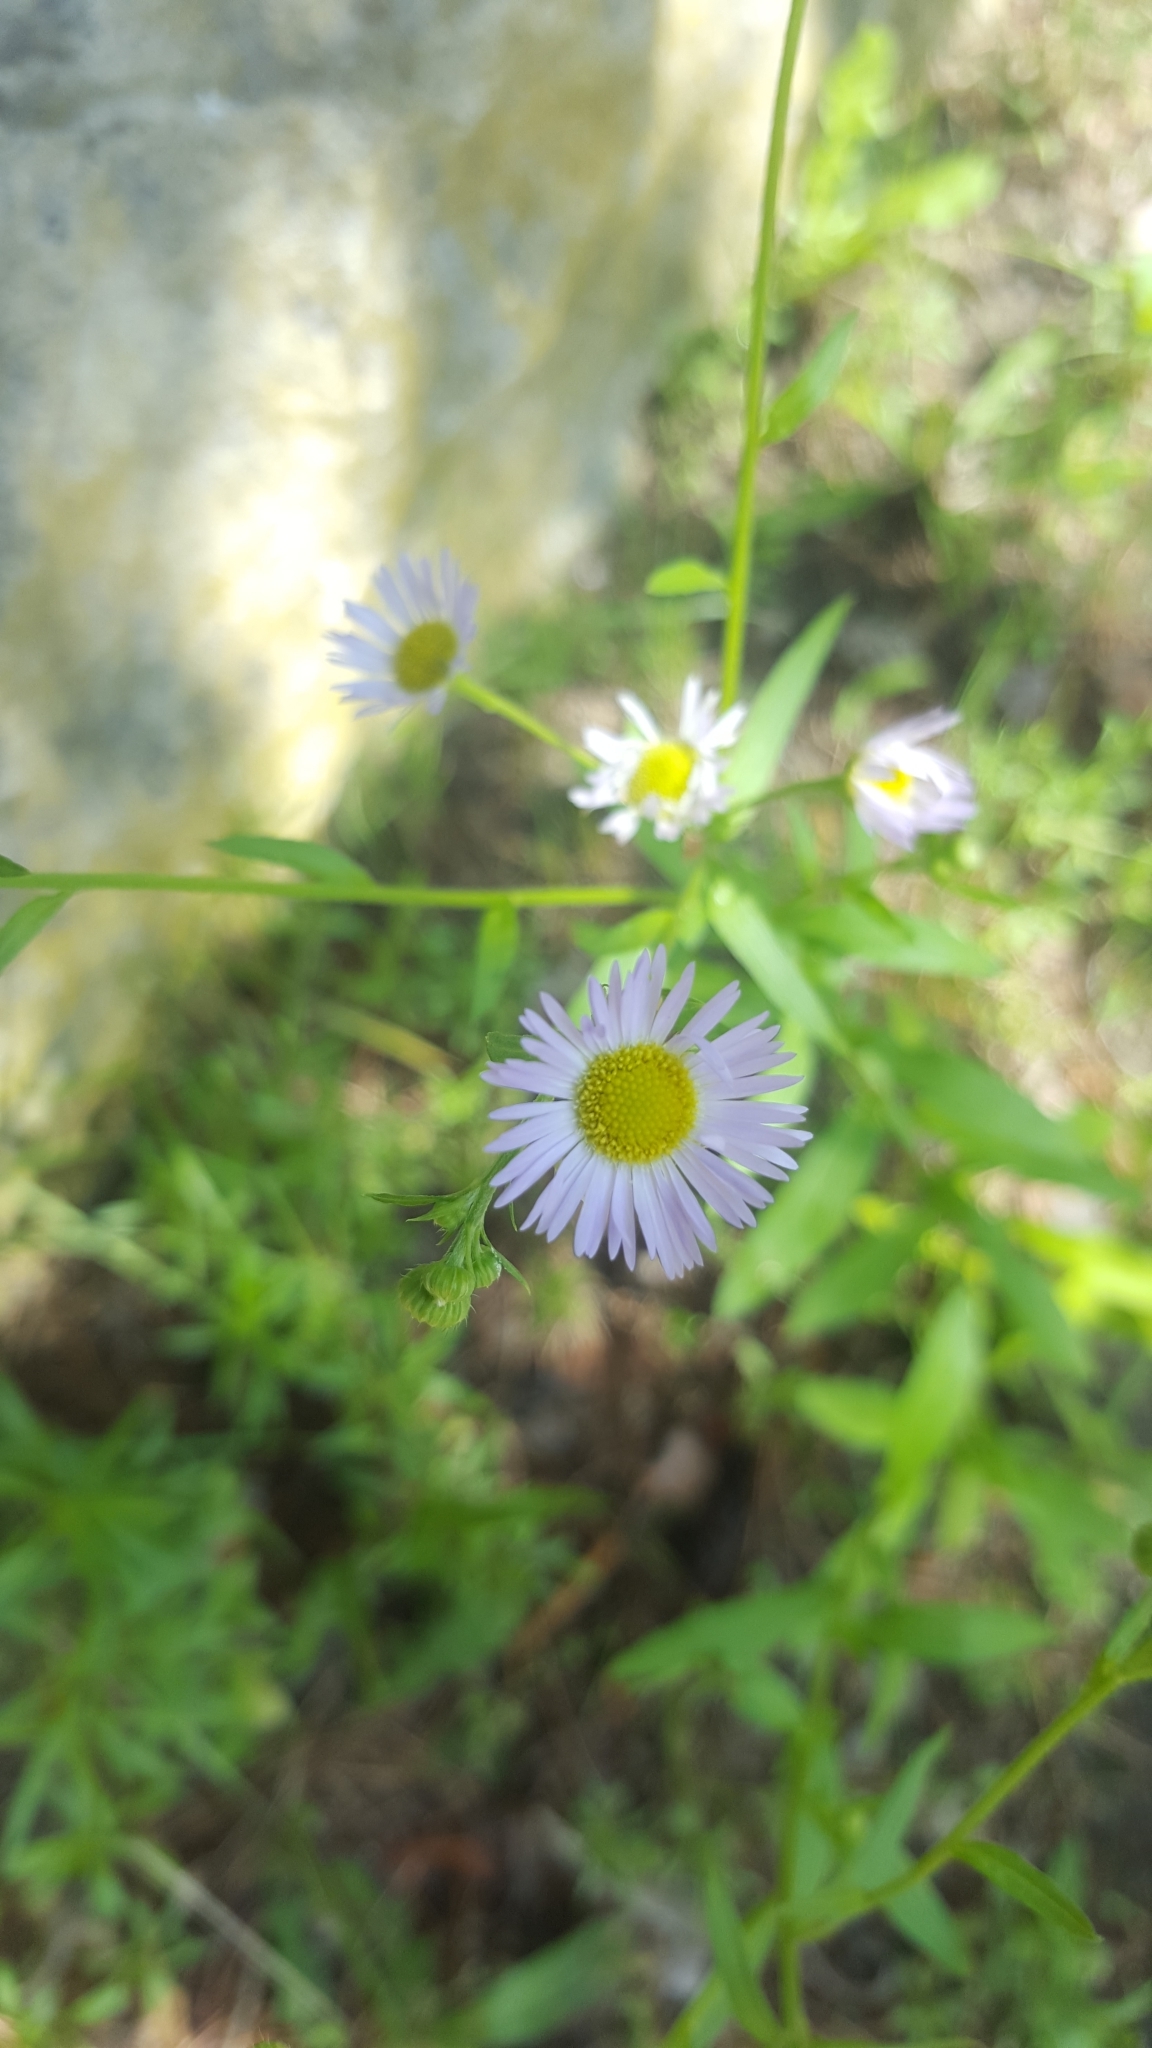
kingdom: Plantae
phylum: Tracheophyta
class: Magnoliopsida
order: Asterales
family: Asteraceae
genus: Erigeron
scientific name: Erigeron annuus
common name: Tall fleabane
